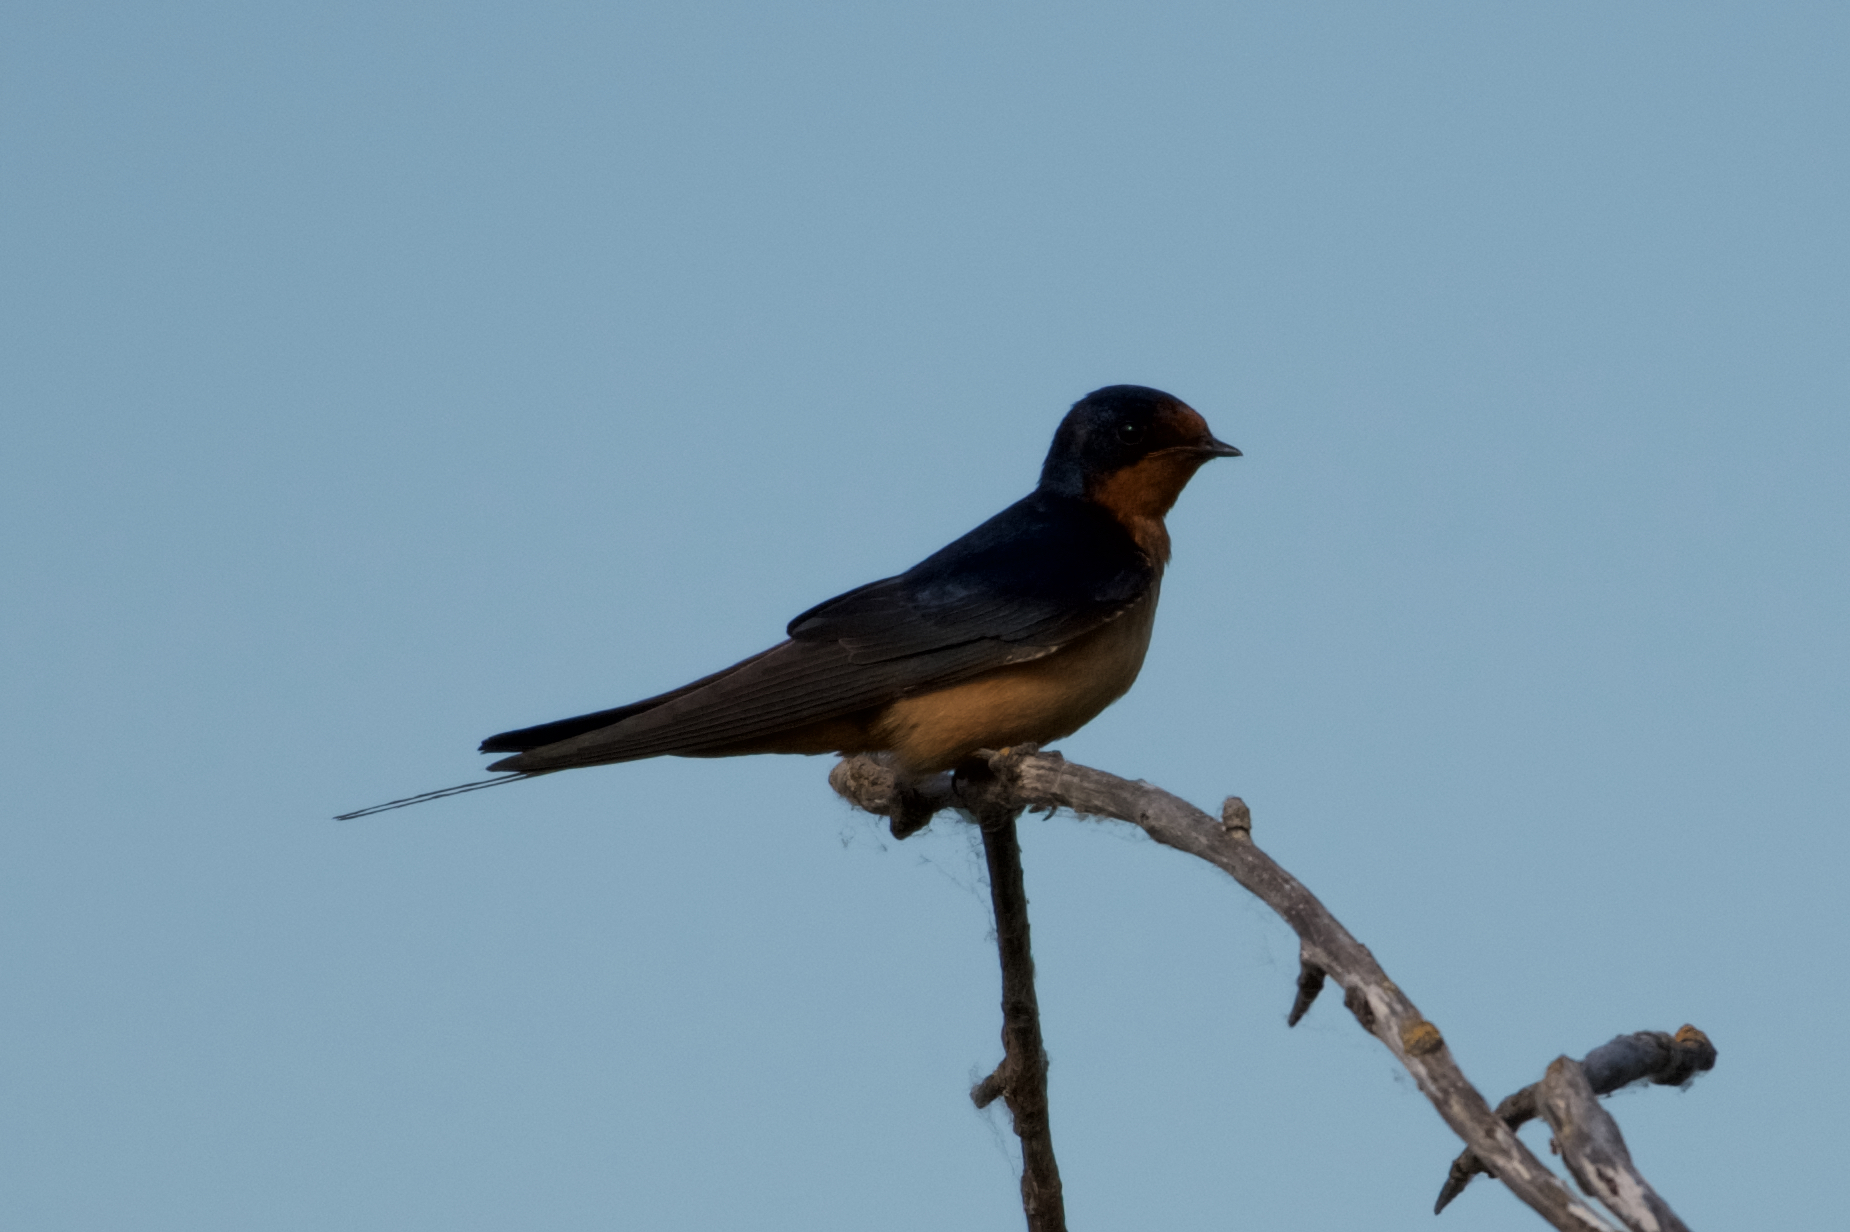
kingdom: Animalia
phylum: Chordata
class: Aves
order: Passeriformes
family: Hirundinidae
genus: Hirundo
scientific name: Hirundo rustica
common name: Barn swallow
